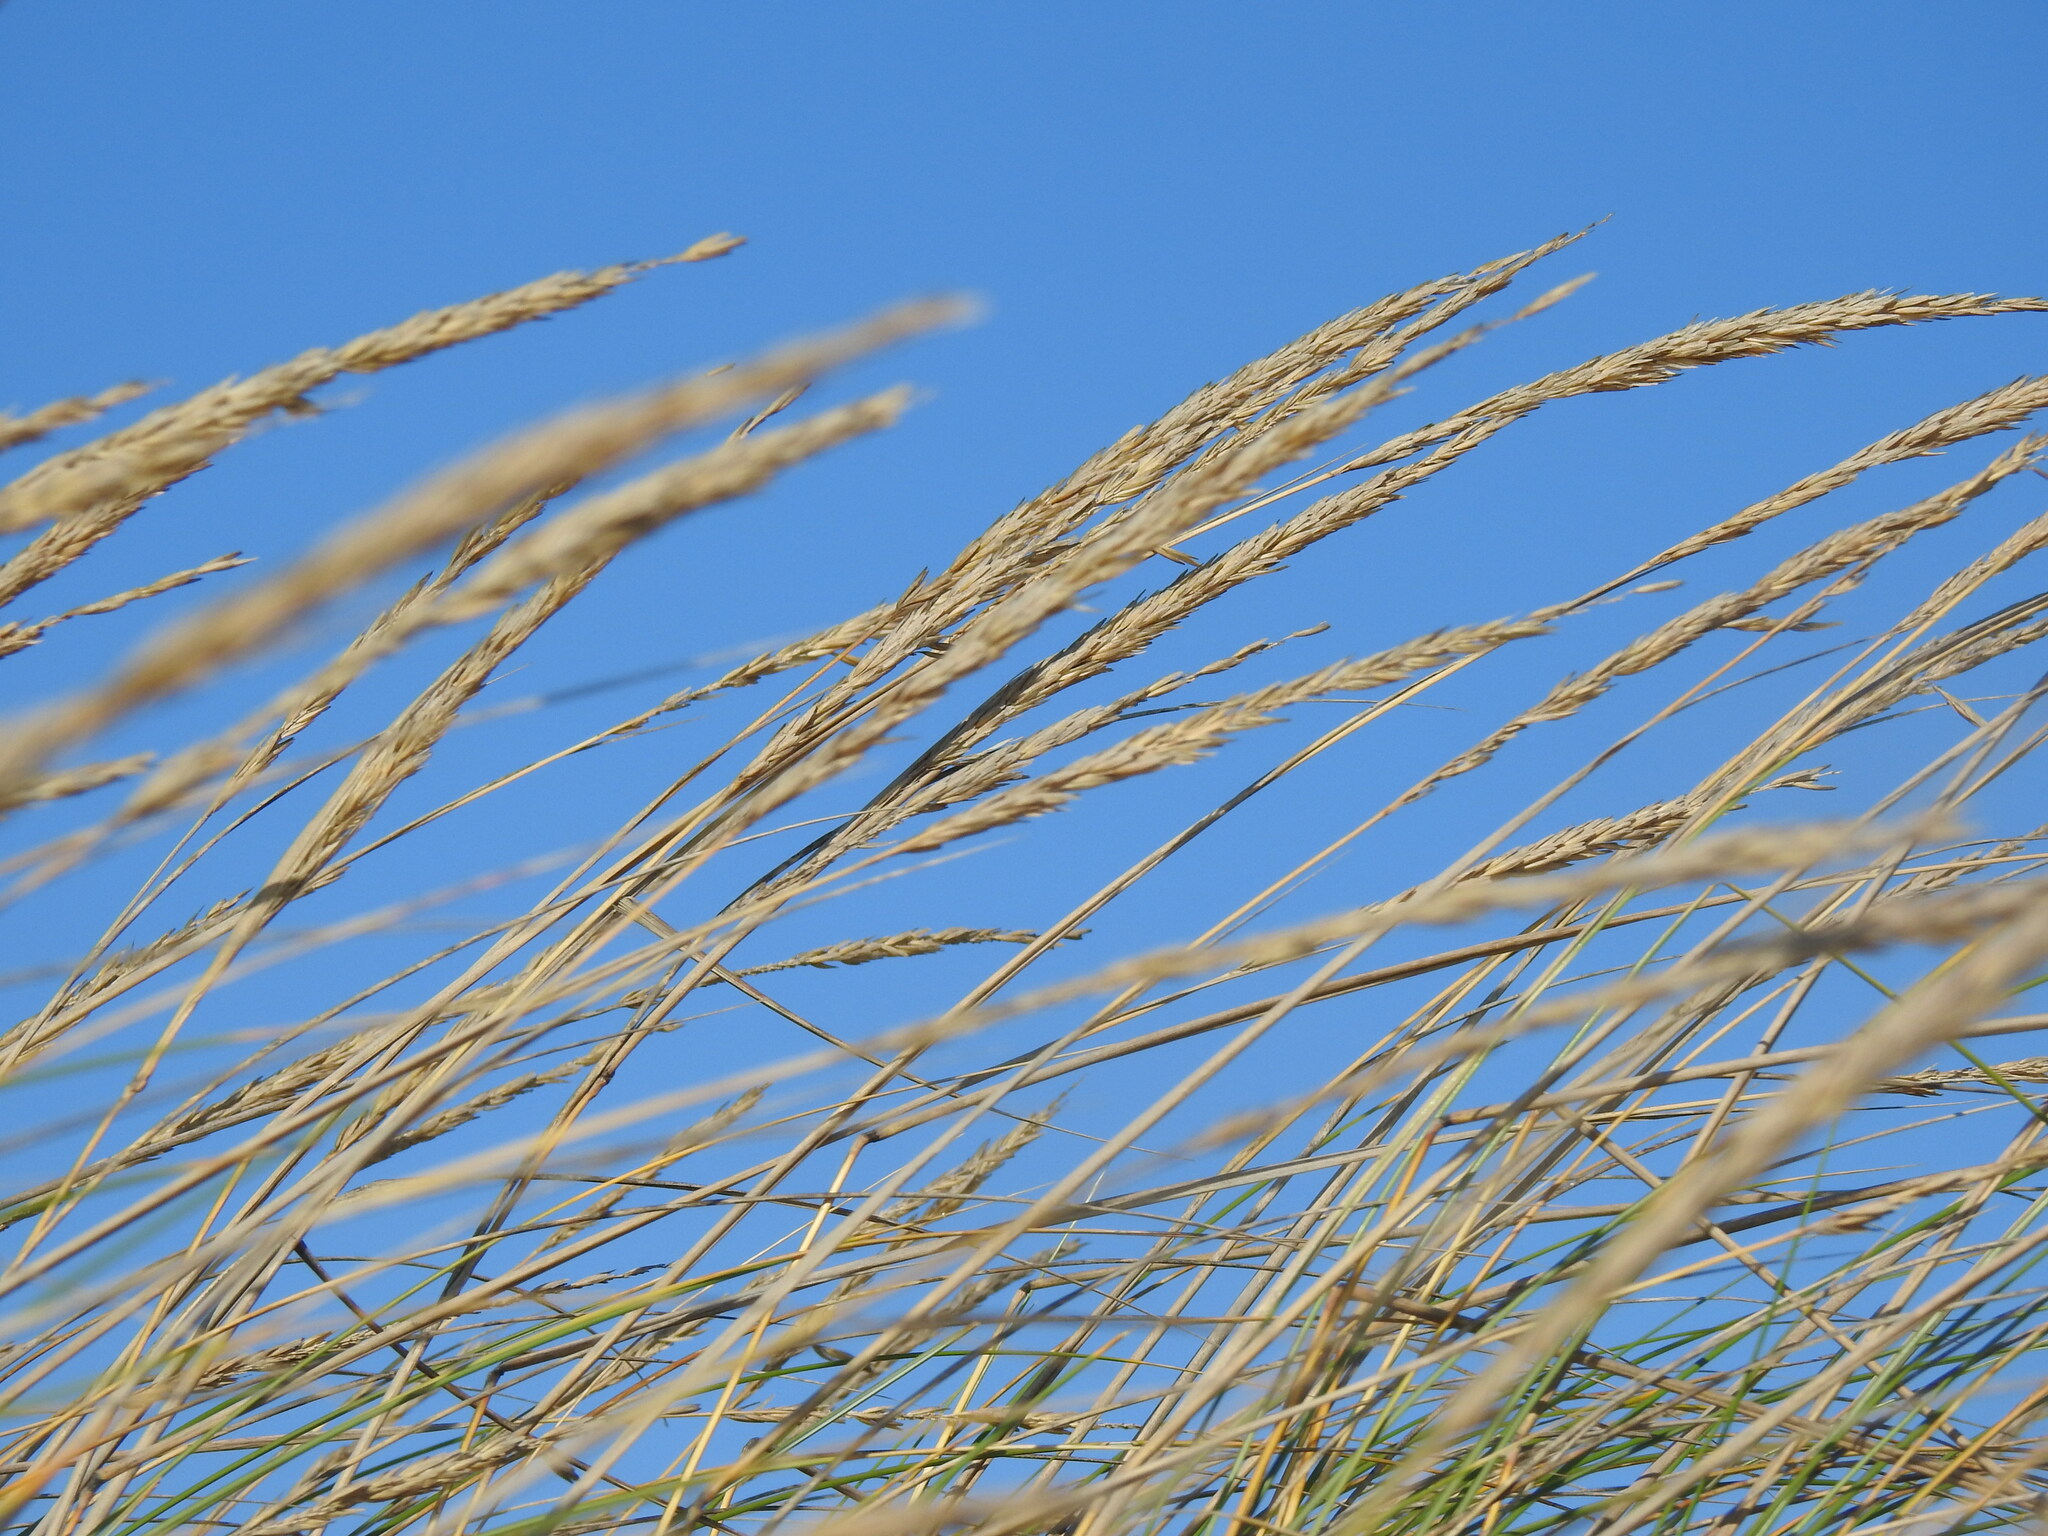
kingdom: Plantae
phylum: Tracheophyta
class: Liliopsida
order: Poales
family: Poaceae
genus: Calamagrostis
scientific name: Calamagrostis arenaria
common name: European beachgrass
